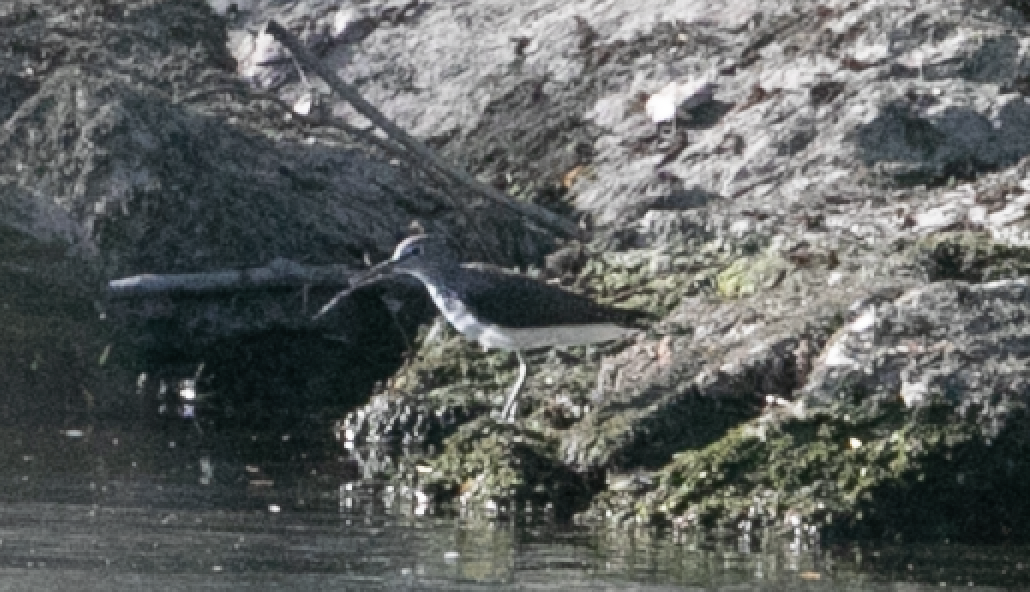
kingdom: Animalia
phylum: Chordata
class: Aves
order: Charadriiformes
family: Scolopacidae
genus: Tringa
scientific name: Tringa ochropus
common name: Green sandpiper
